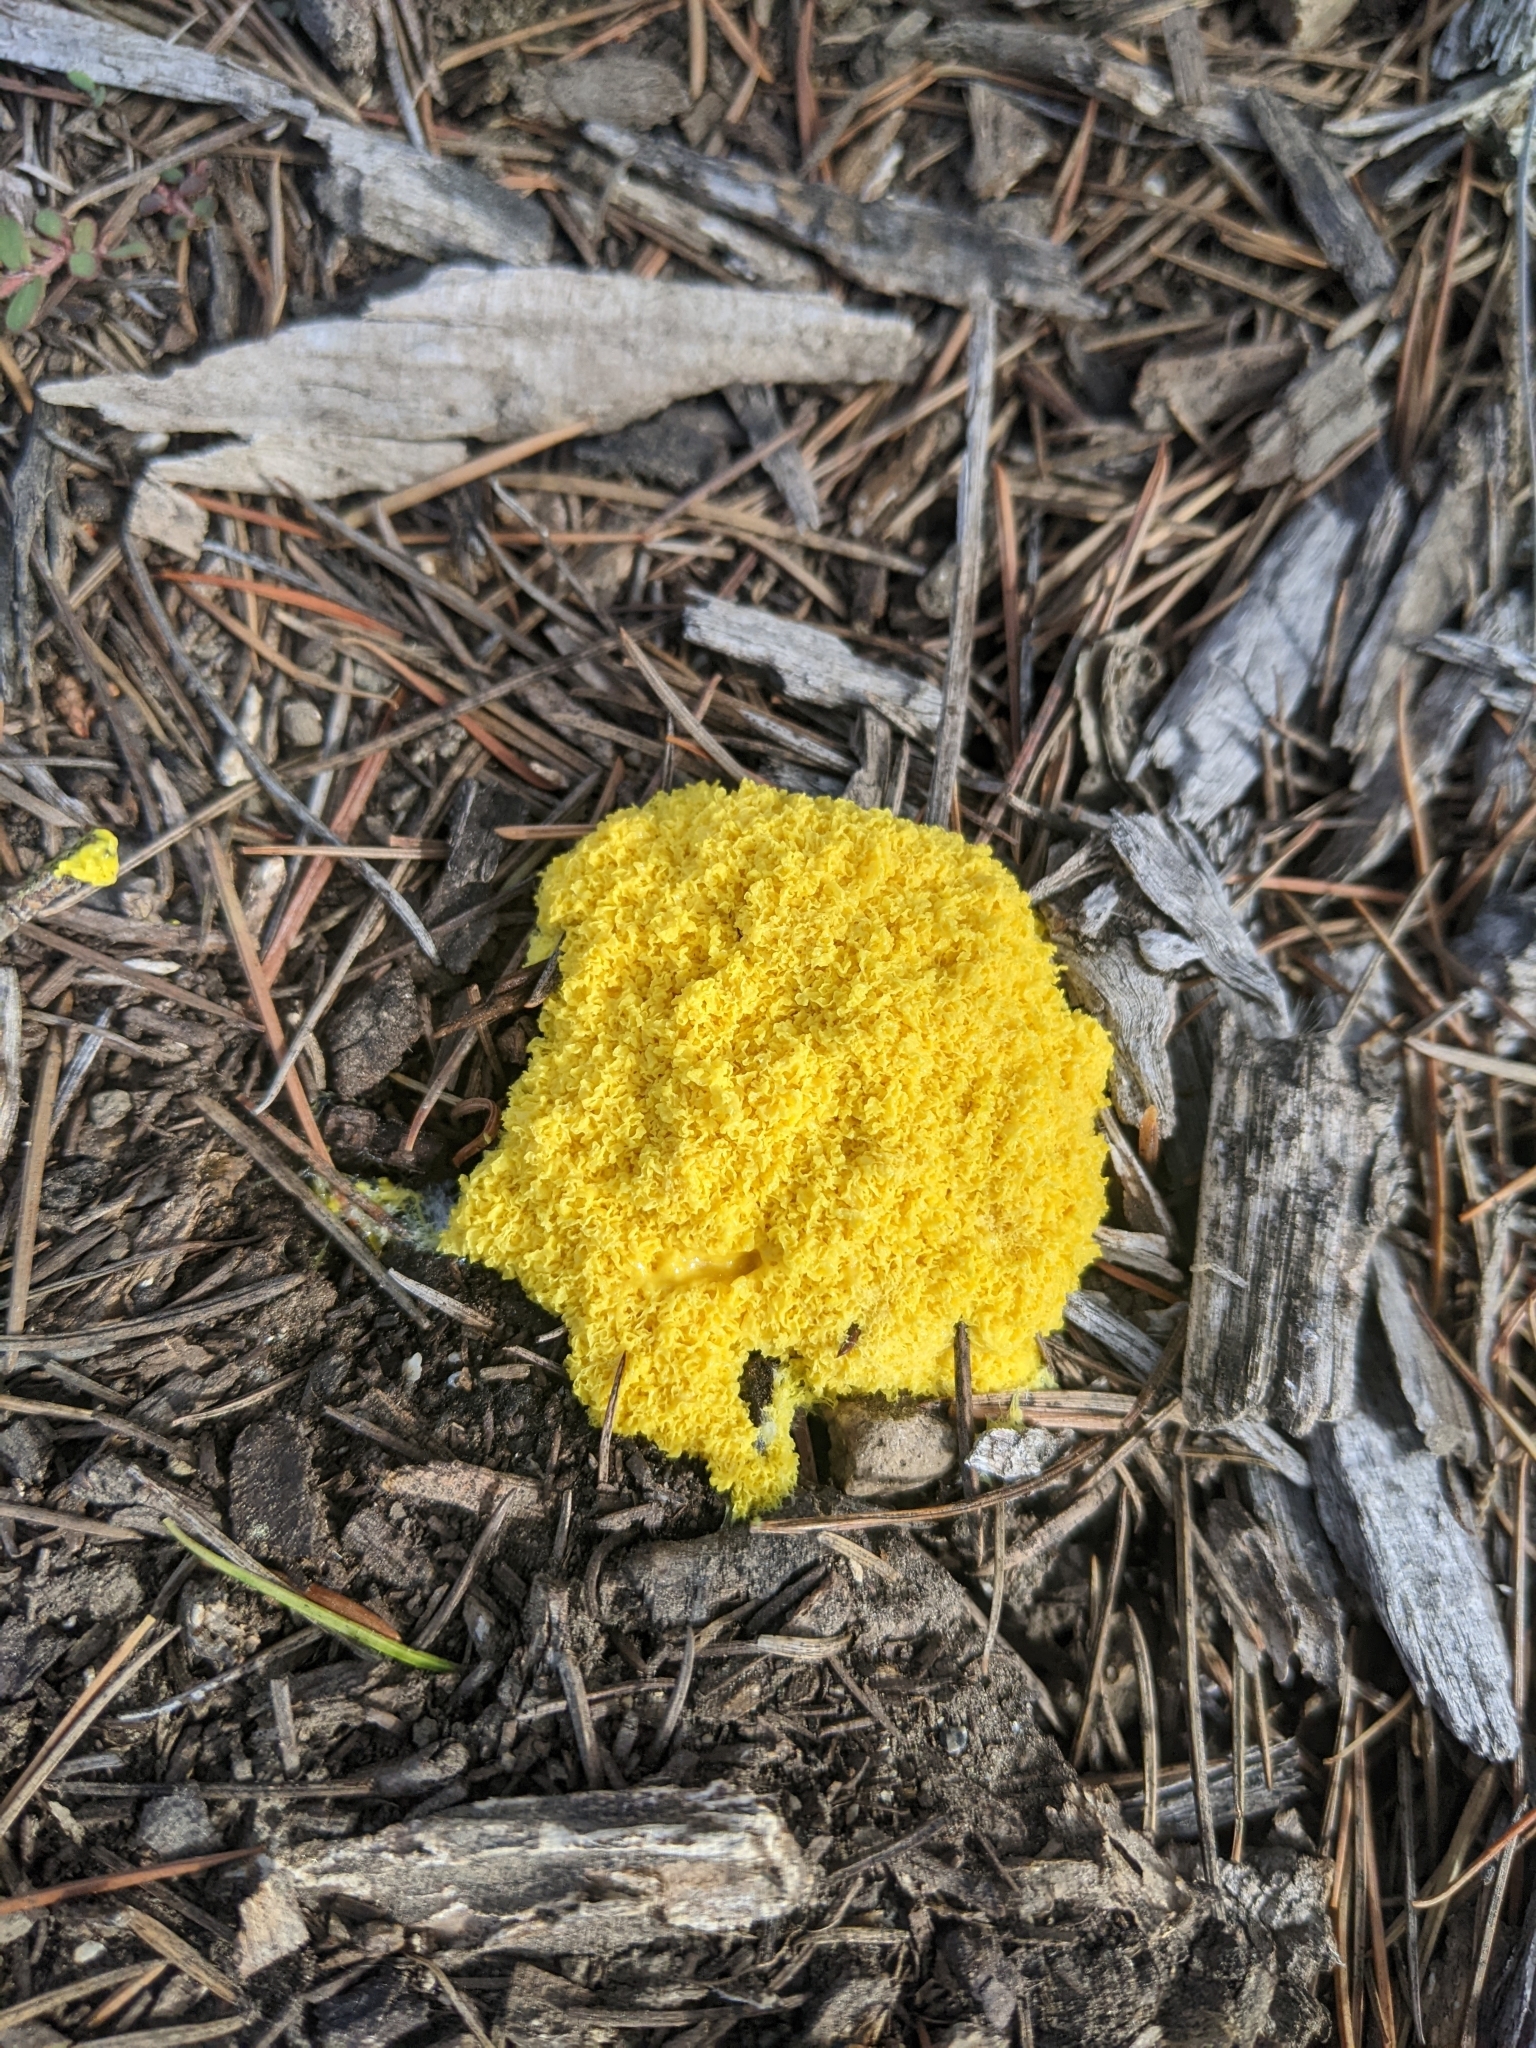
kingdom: Protozoa
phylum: Mycetozoa
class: Myxomycetes
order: Physarales
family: Physaraceae
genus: Fuligo
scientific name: Fuligo septica
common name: Dog vomit slime mold
